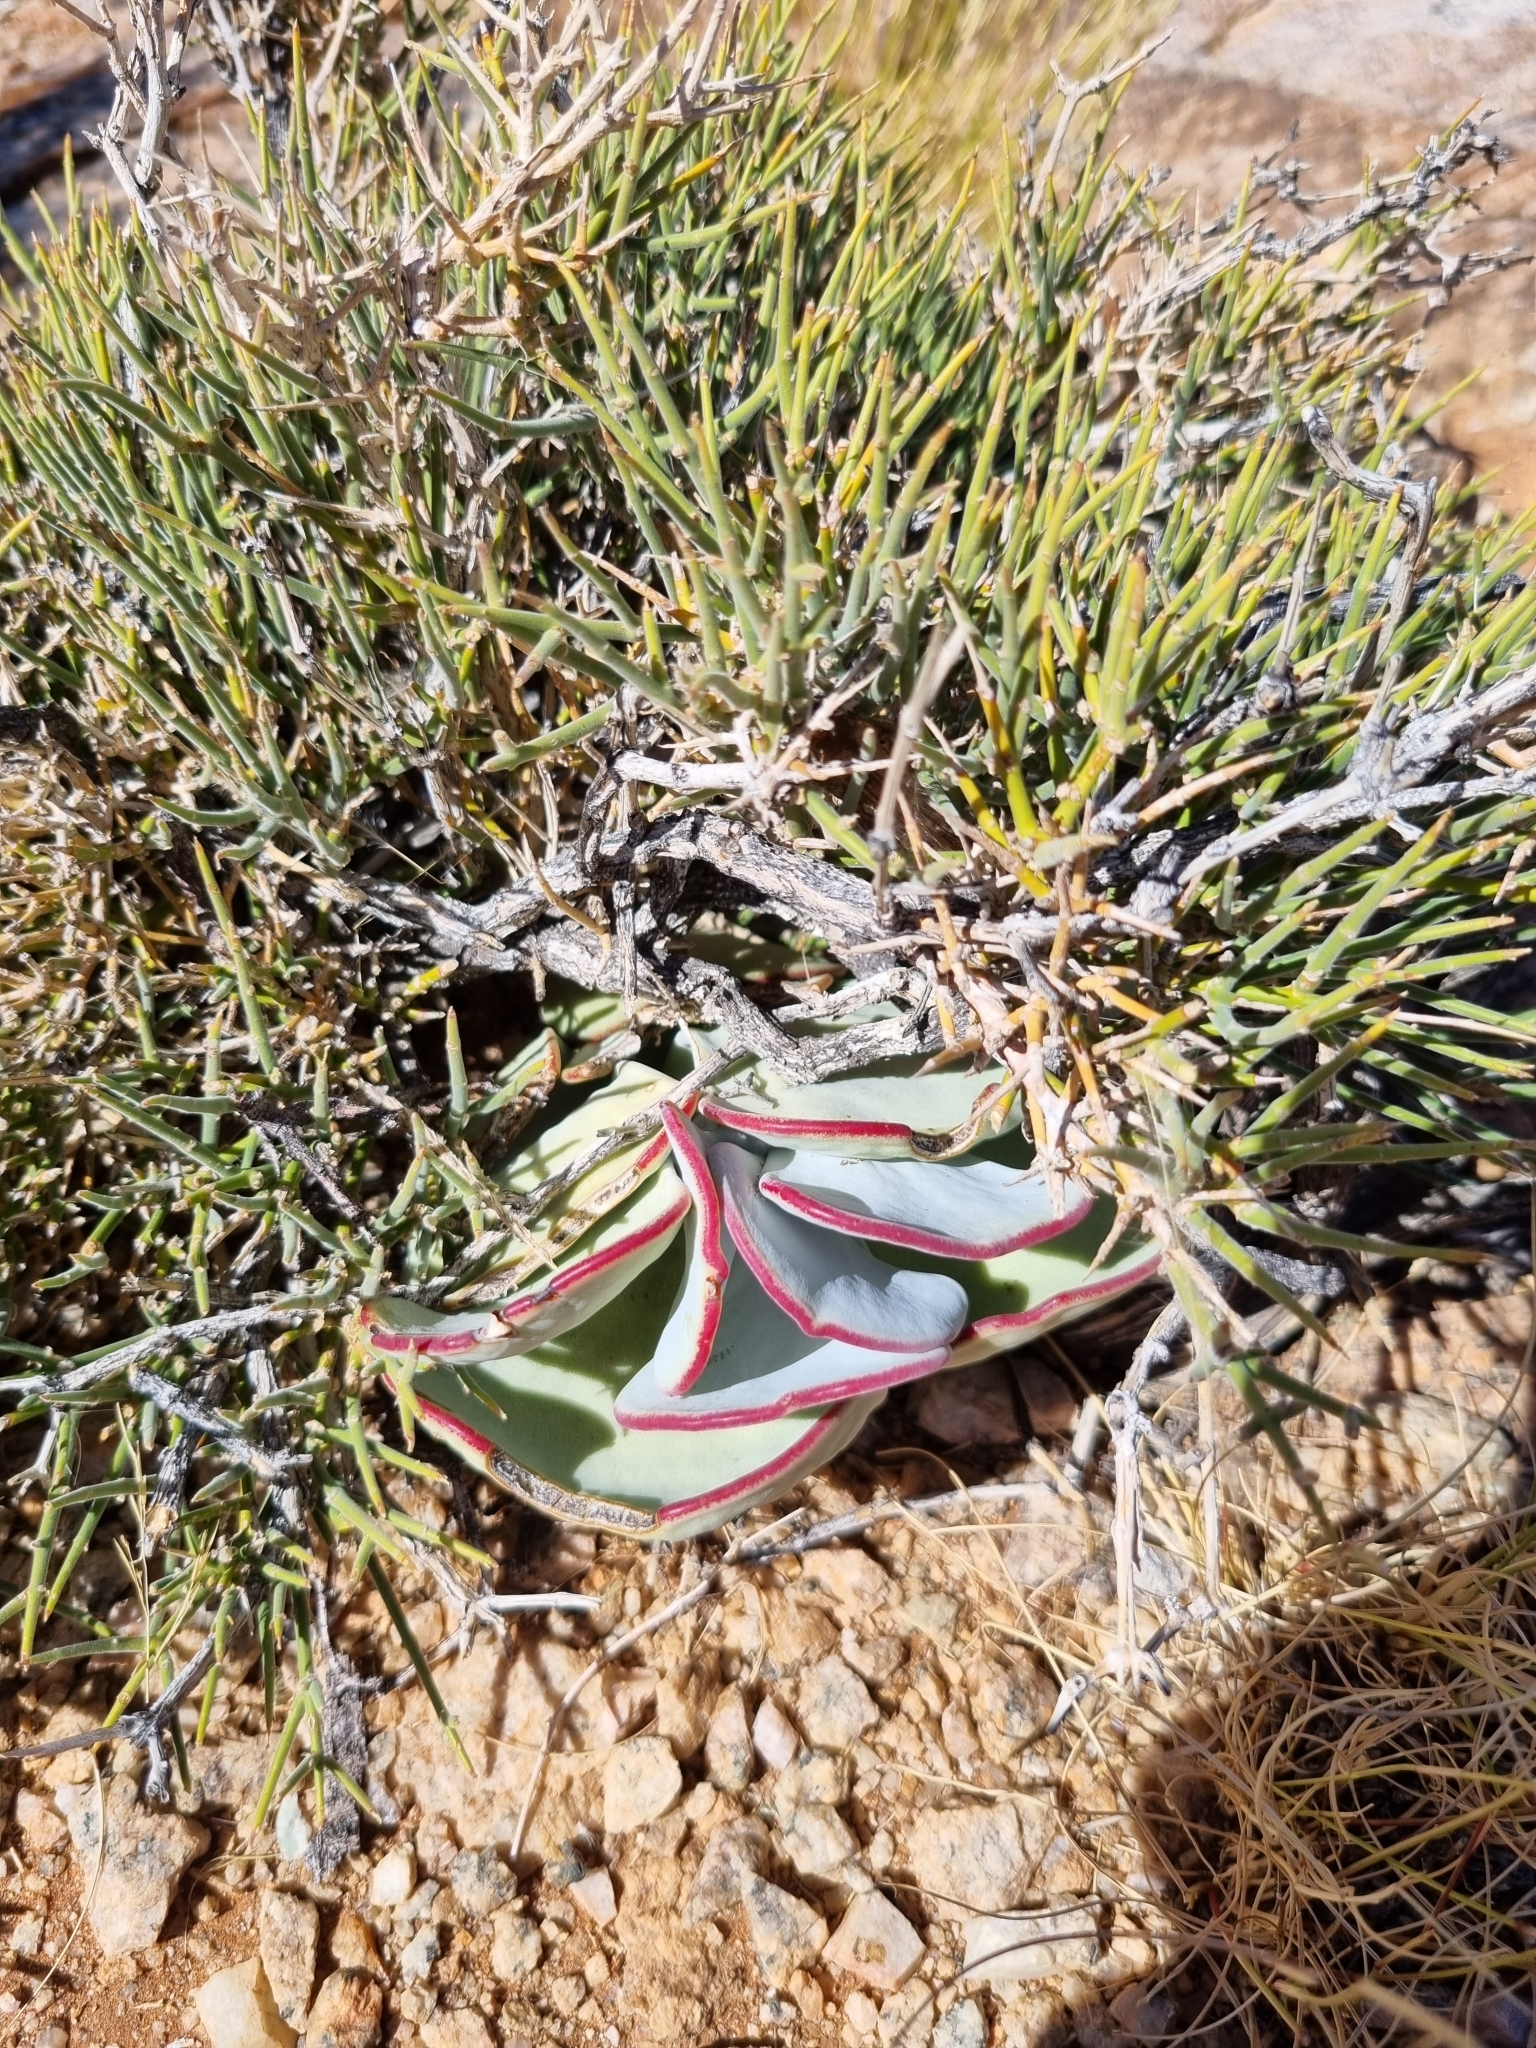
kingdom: Plantae
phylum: Tracheophyta
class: Magnoliopsida
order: Saxifragales
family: Crassulaceae
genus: Cotyledon
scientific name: Cotyledon orbiculata
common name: Pig's ear
